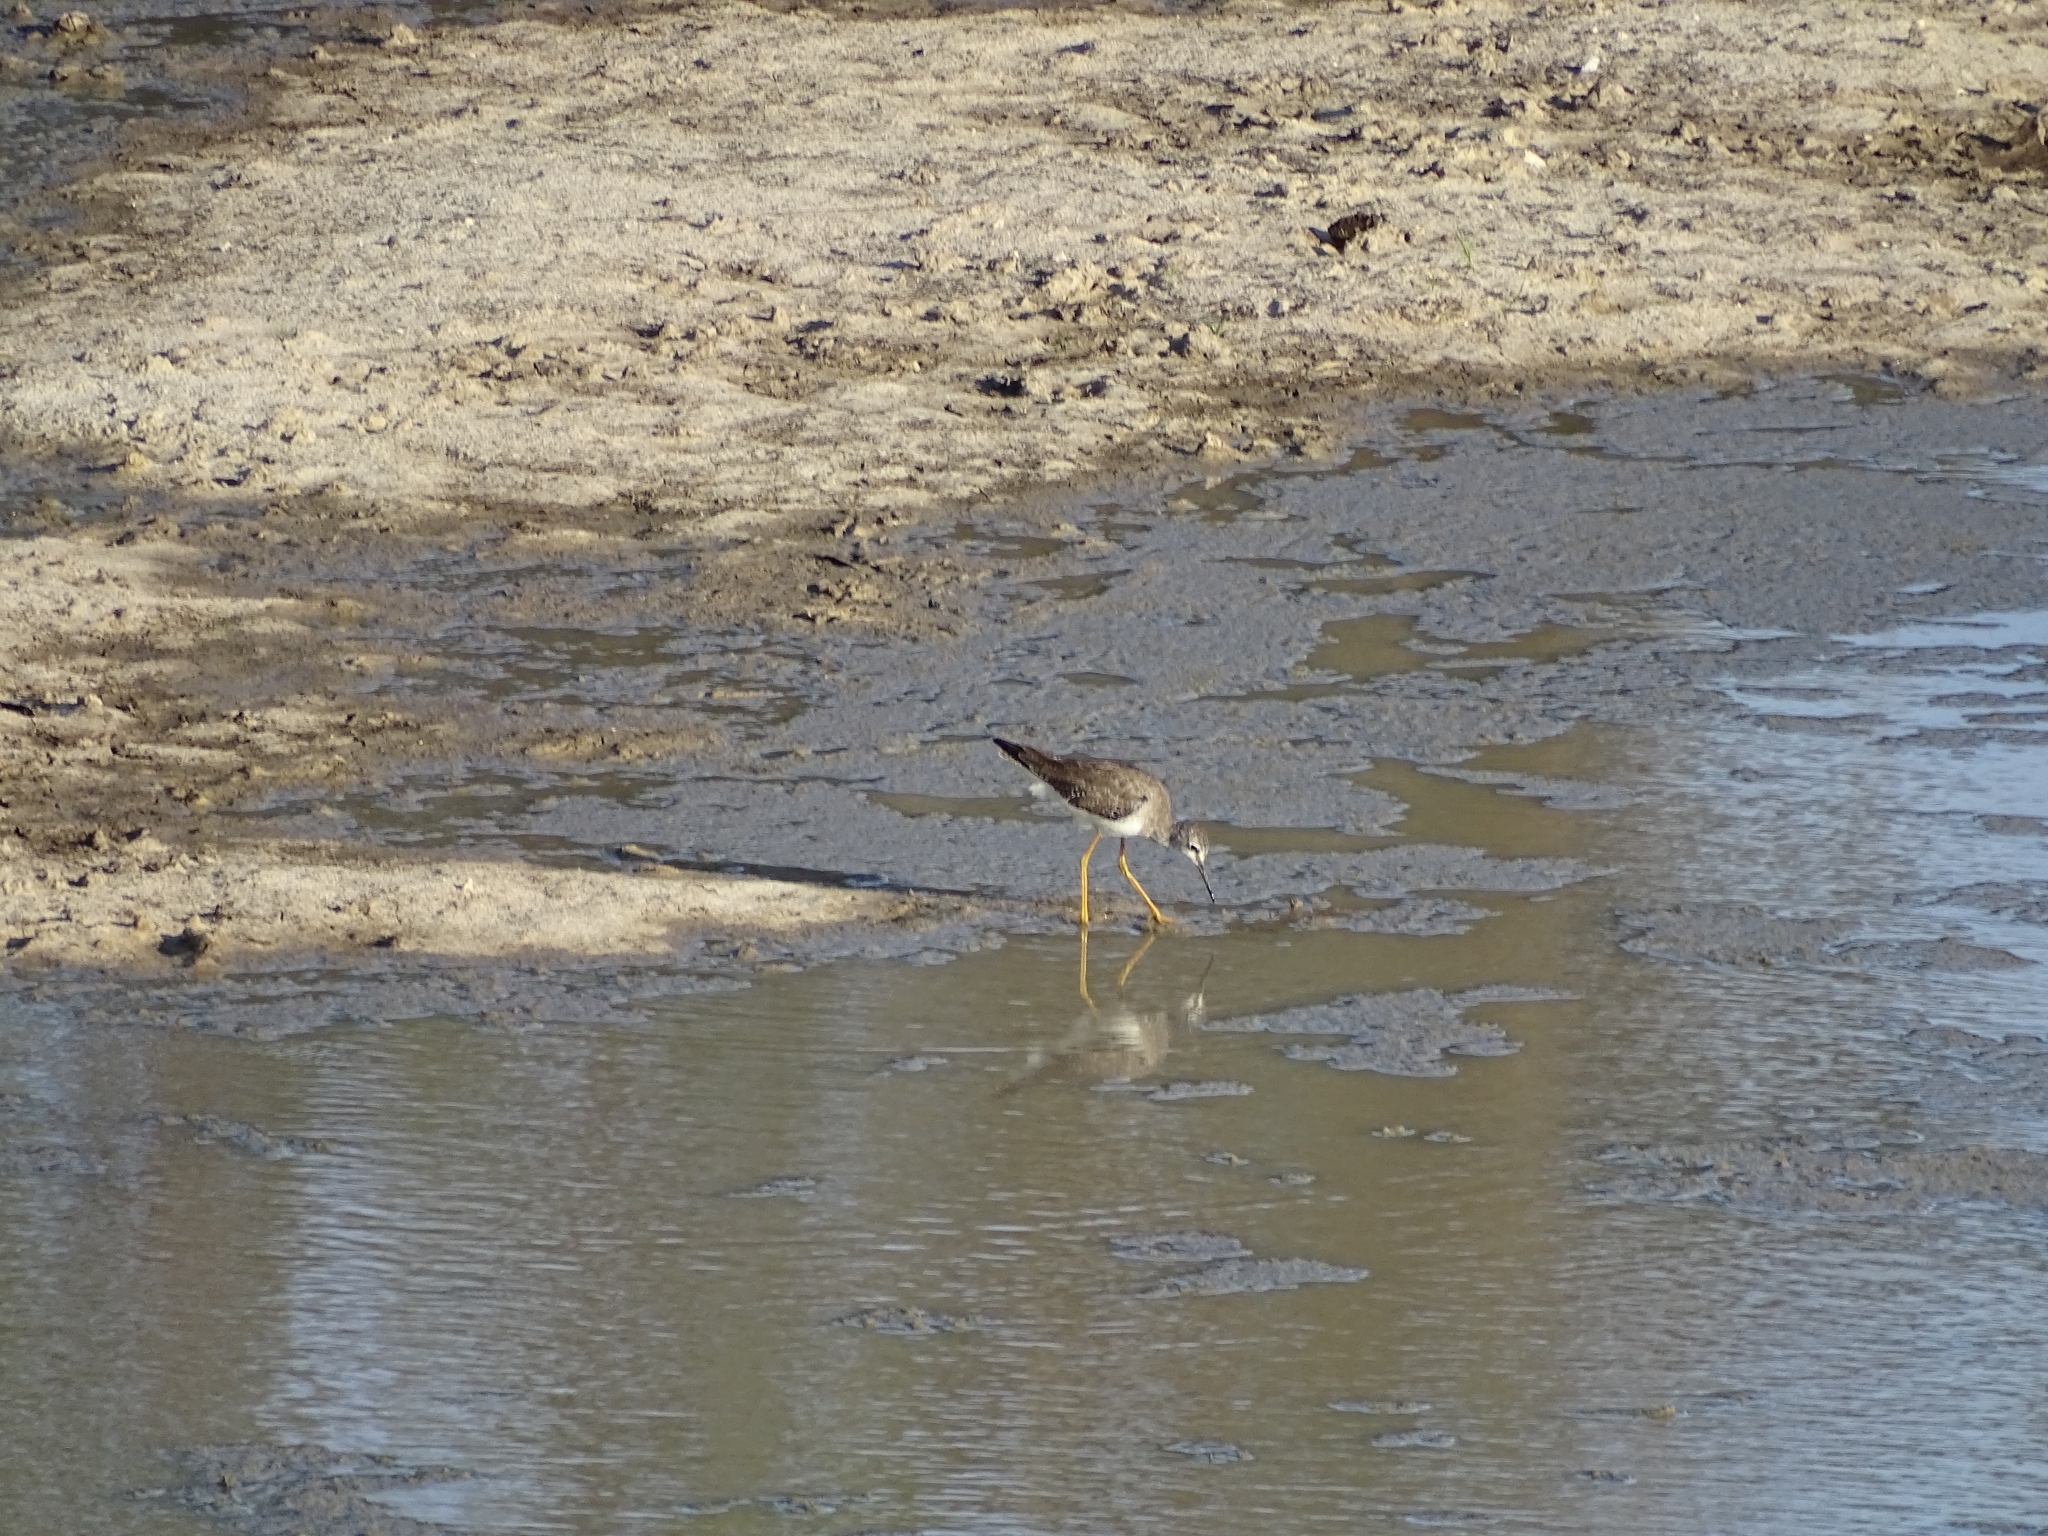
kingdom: Animalia
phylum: Chordata
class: Aves
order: Charadriiformes
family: Scolopacidae
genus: Tringa
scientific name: Tringa flavipes
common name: Lesser yellowlegs
